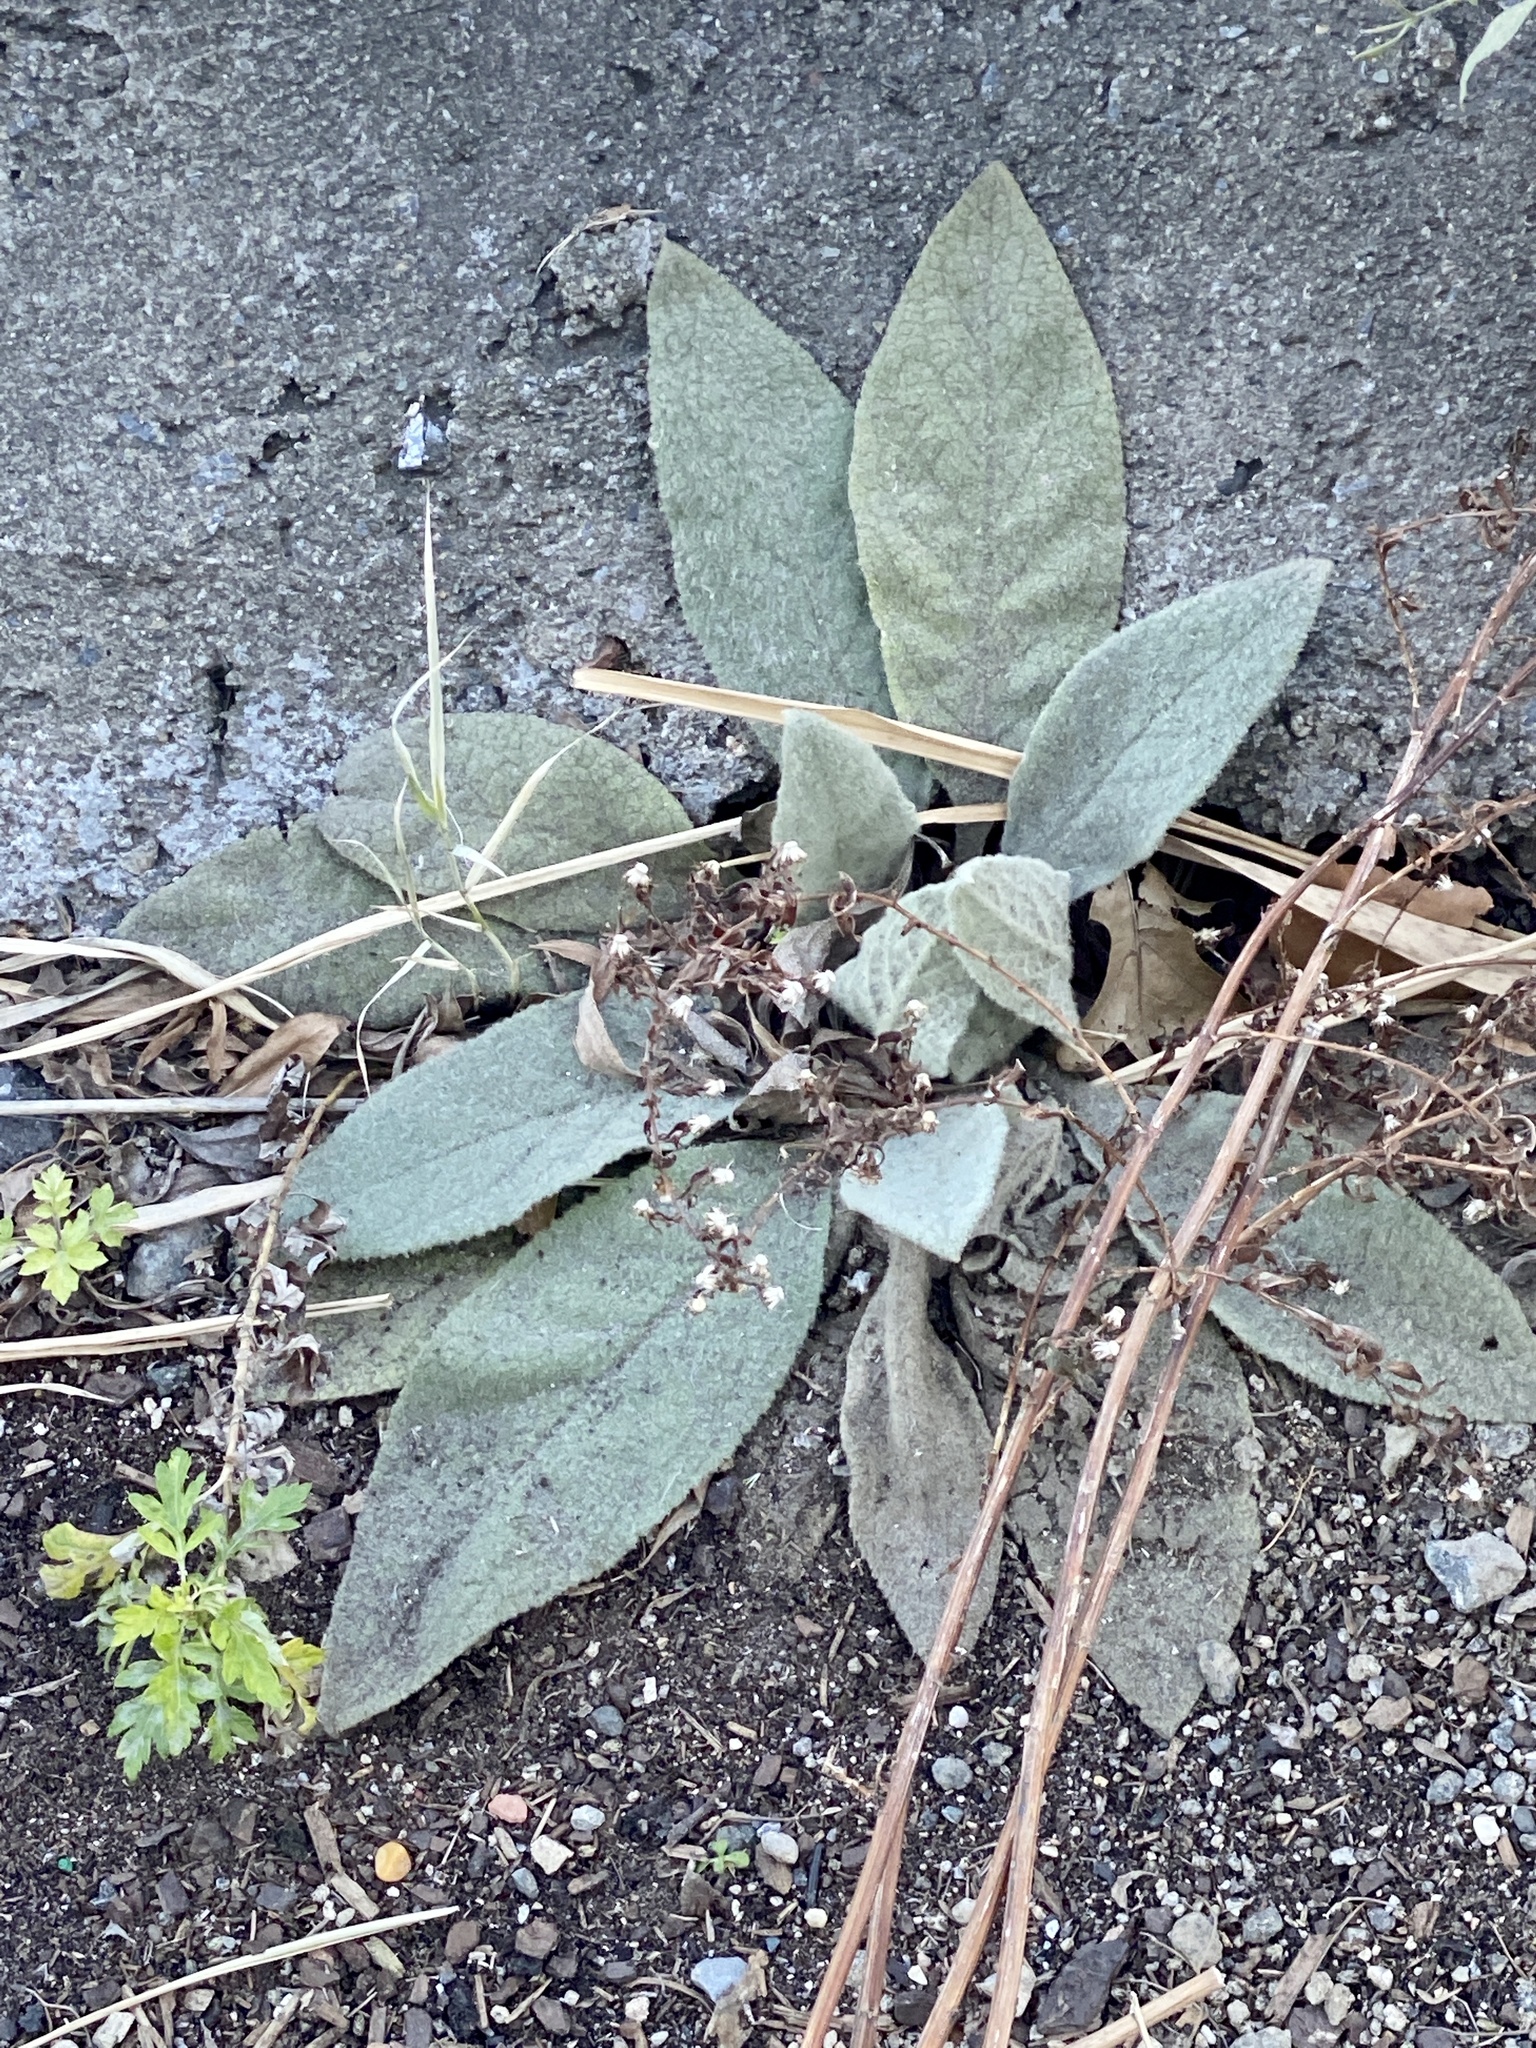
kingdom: Plantae
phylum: Tracheophyta
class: Magnoliopsida
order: Lamiales
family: Scrophulariaceae
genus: Verbascum
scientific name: Verbascum thapsus
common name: Common mullein
